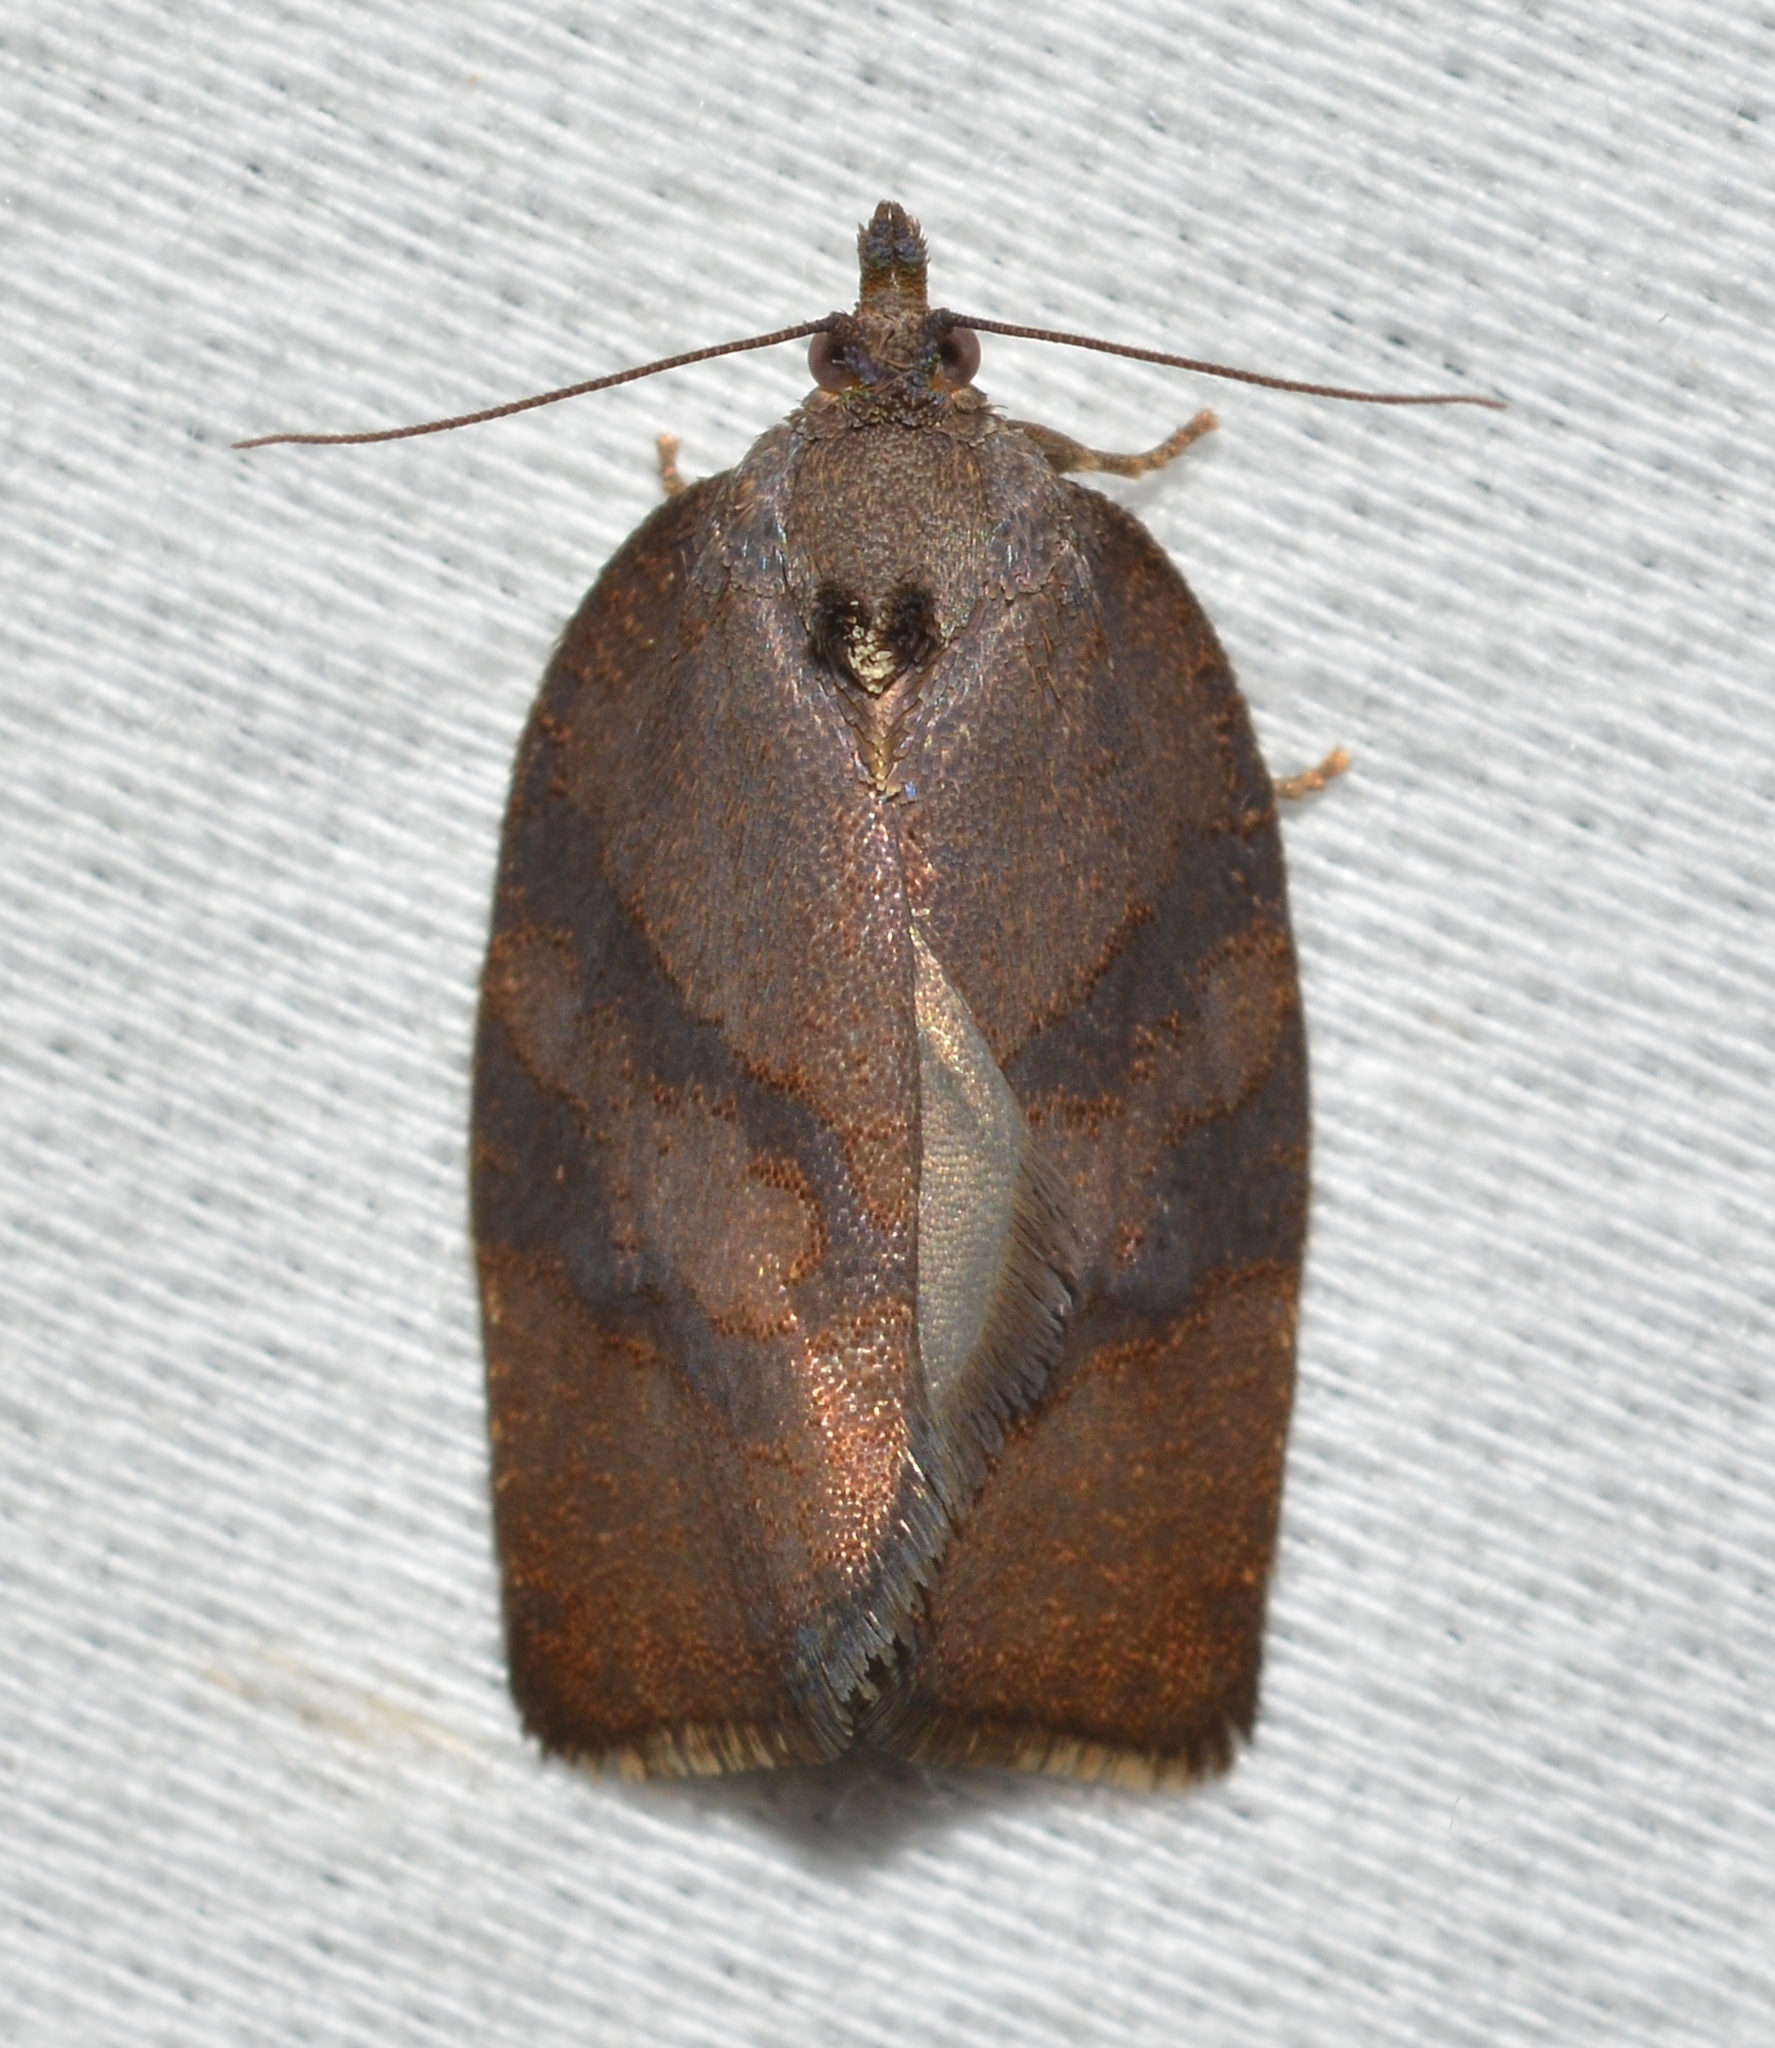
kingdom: Animalia
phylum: Arthropoda
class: Insecta
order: Lepidoptera
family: Tortricidae
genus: Argyrotaenia
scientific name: Argyrotaenia juglandana
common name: Hickory leafroller moth
